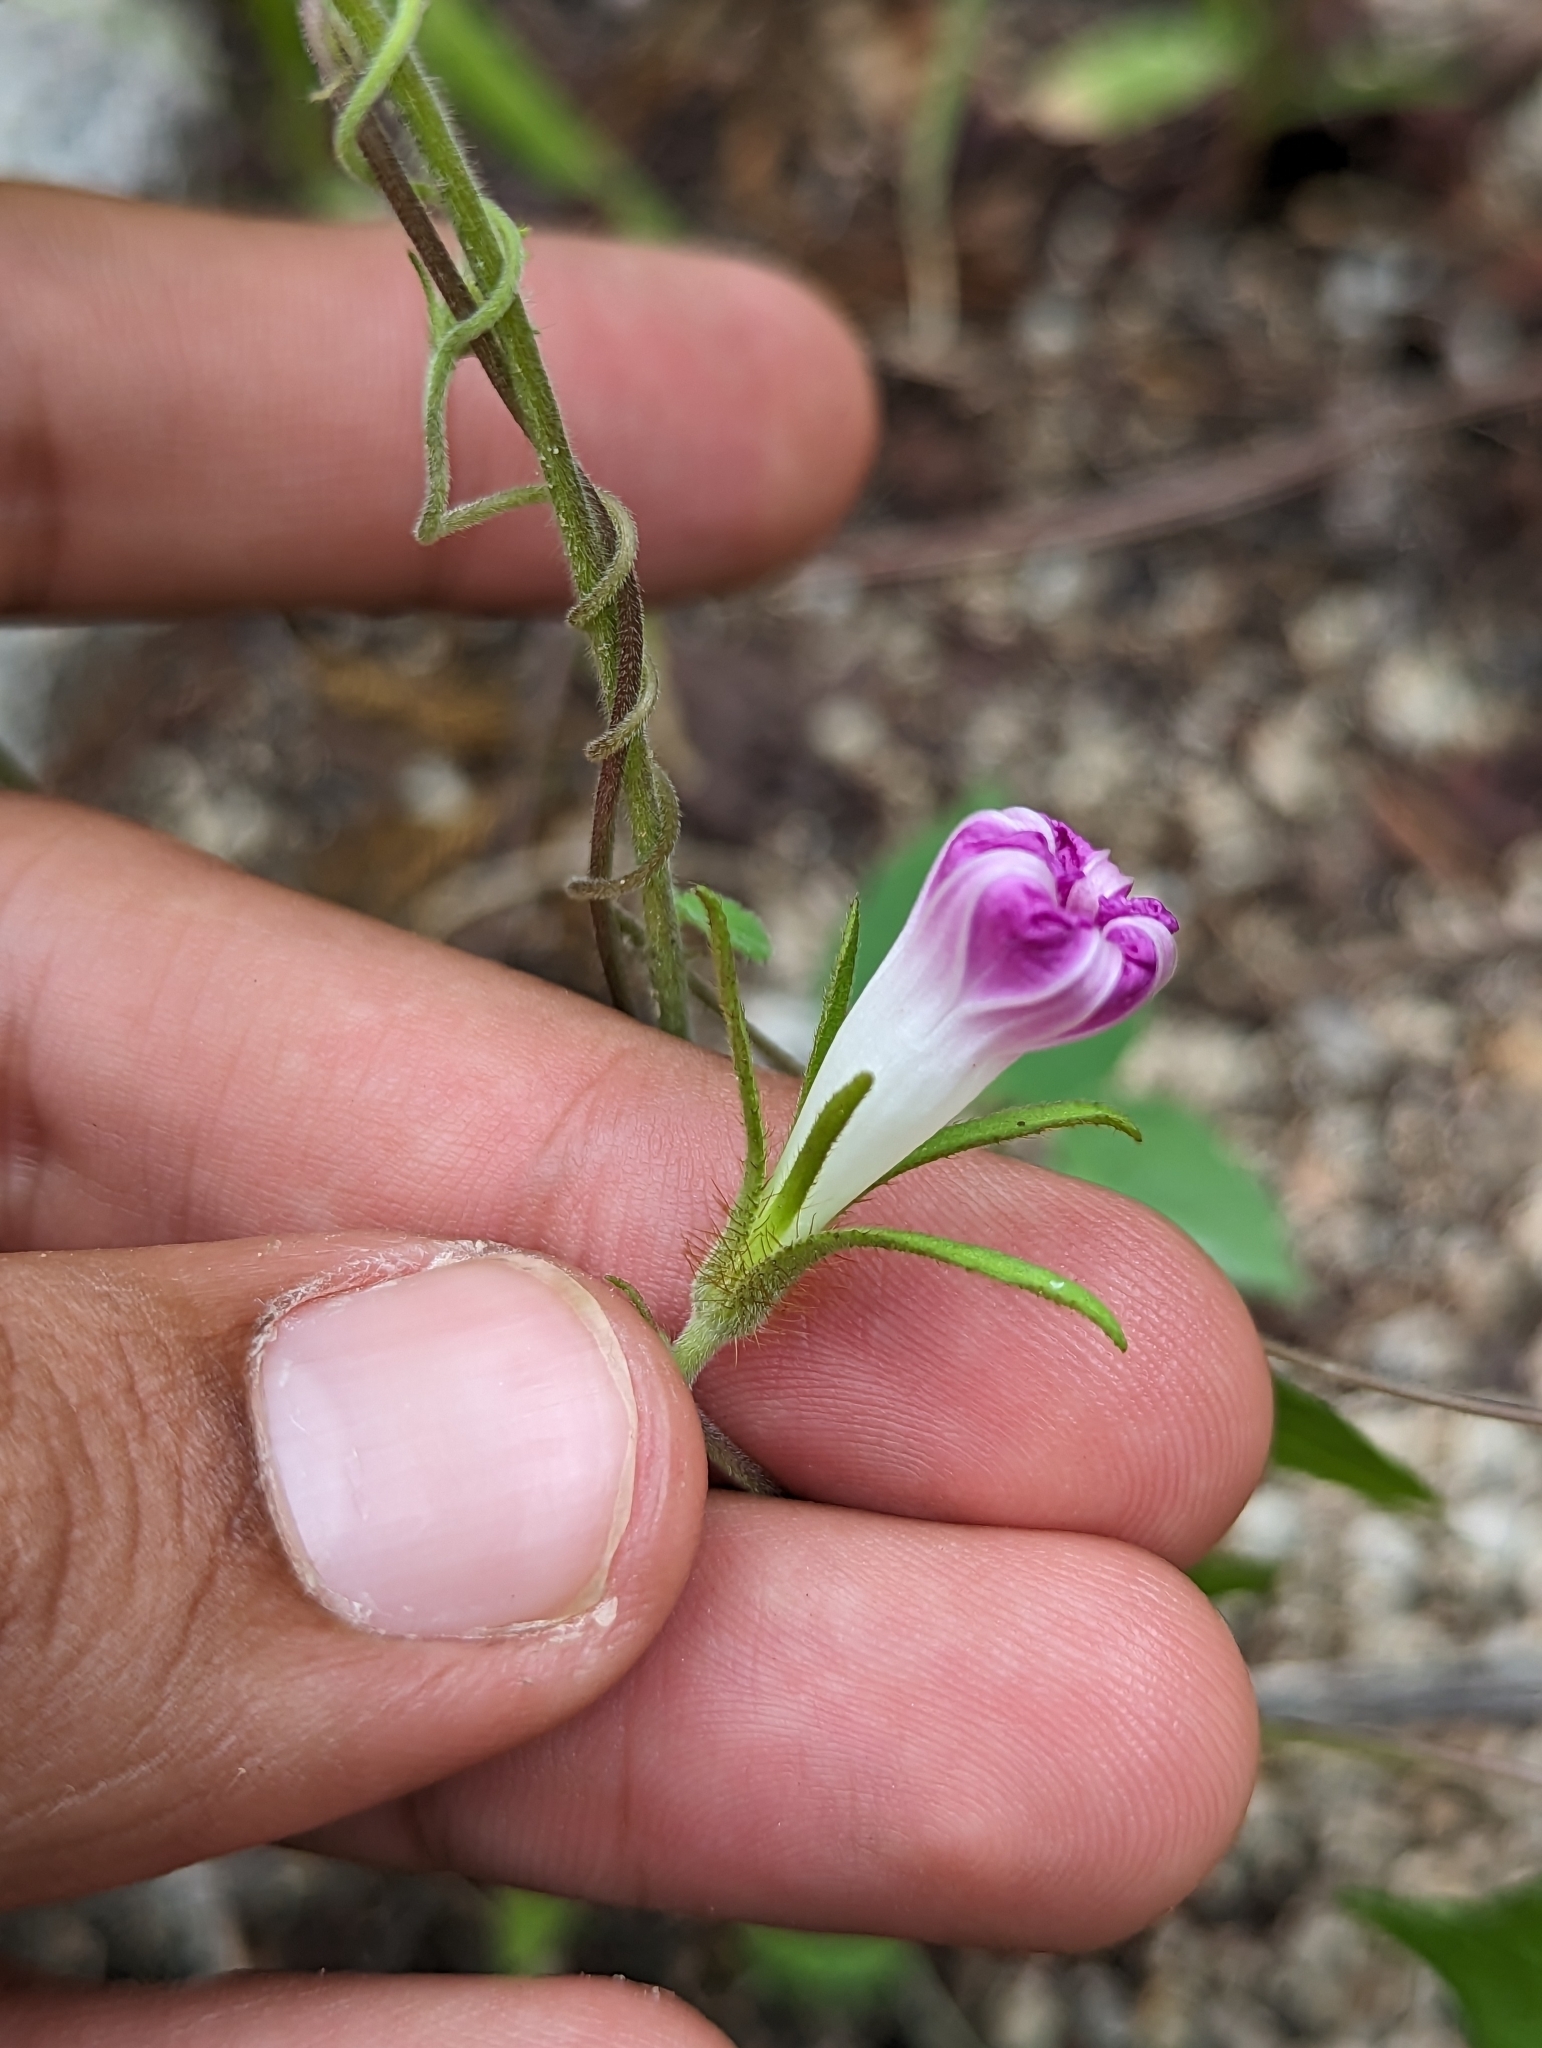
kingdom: Plantae
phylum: Tracheophyta
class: Magnoliopsida
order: Solanales
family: Convolvulaceae
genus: Ipomoea
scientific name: Ipomoea nil
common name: Japanese morning-glory
